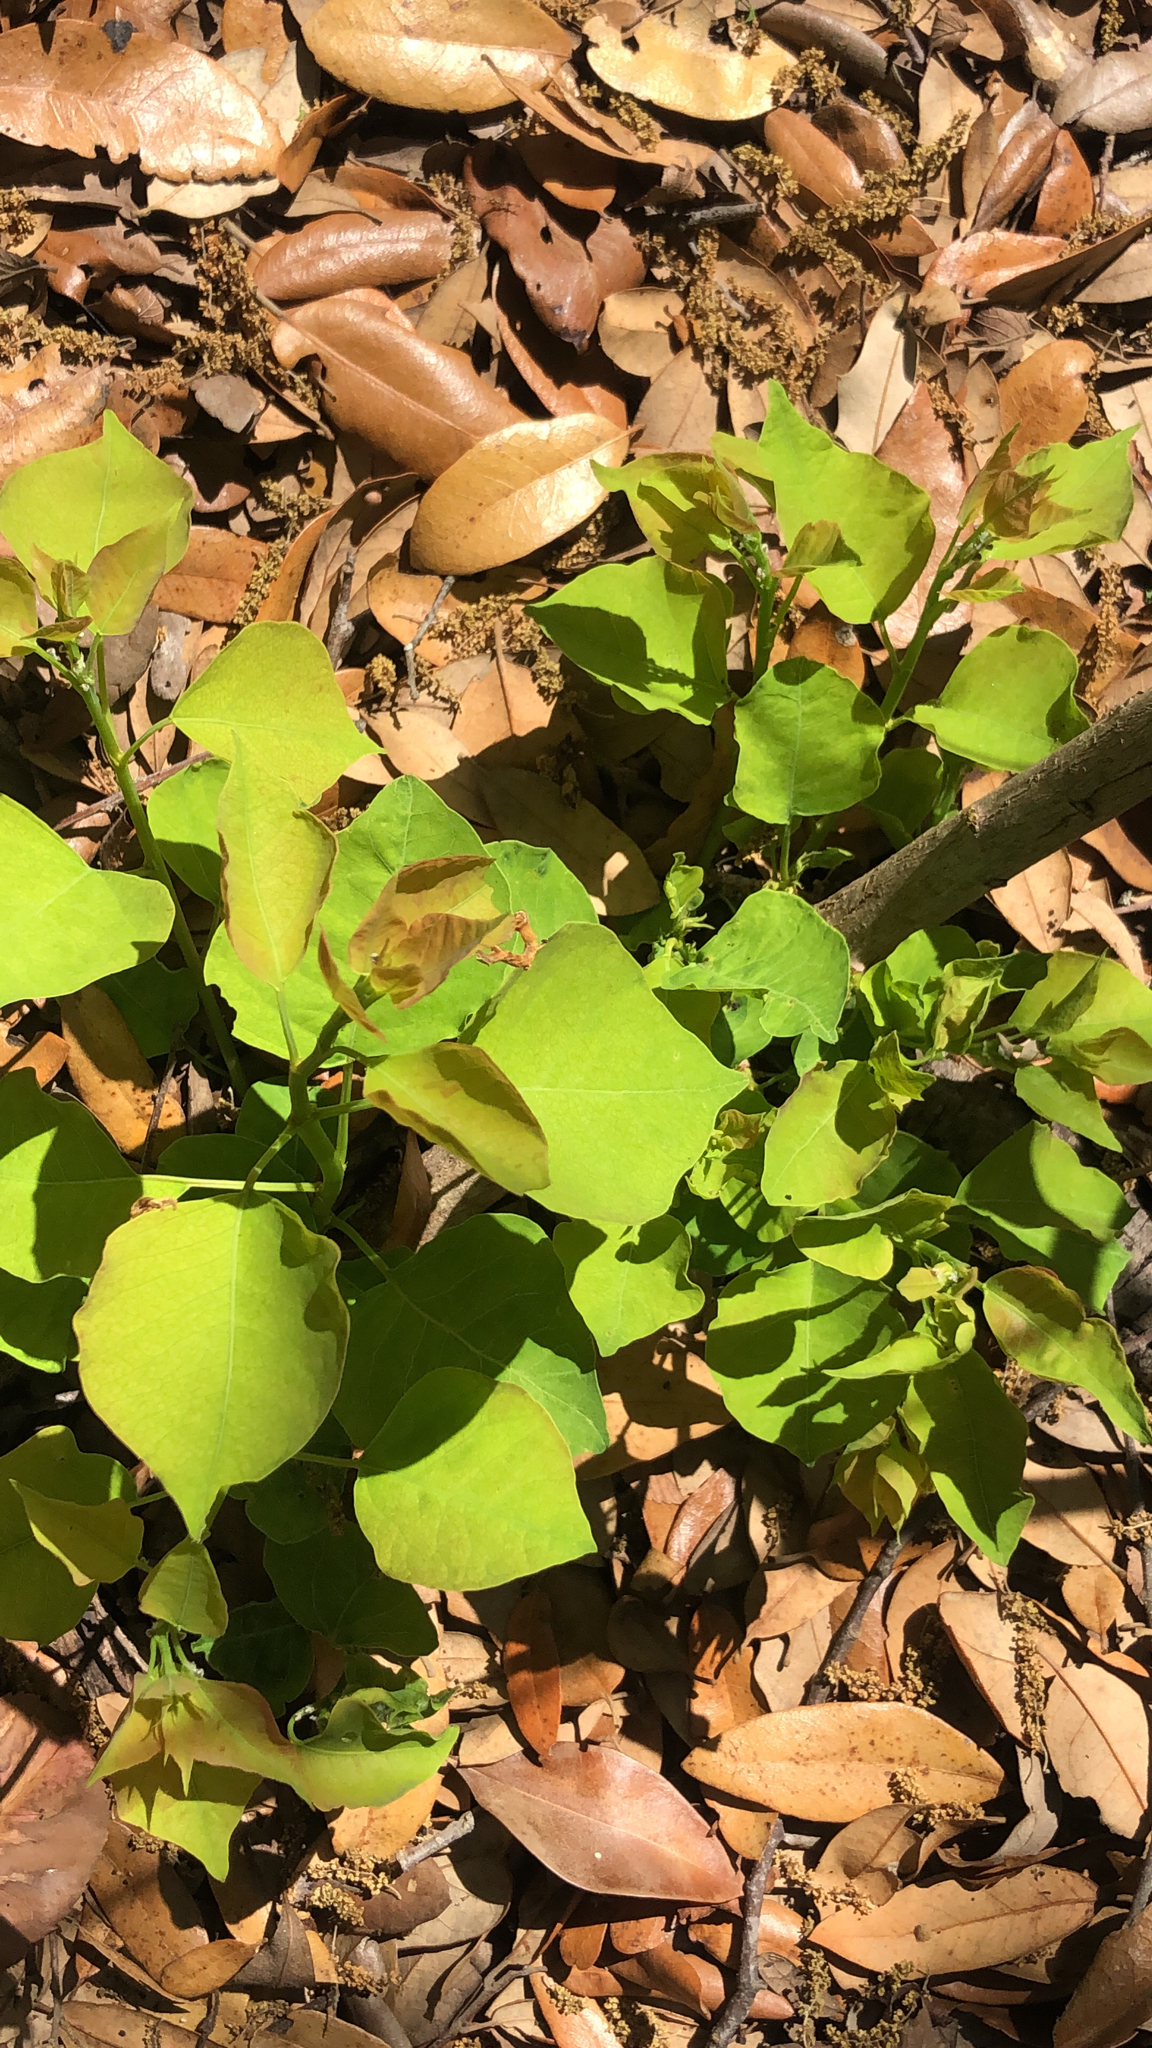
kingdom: Plantae
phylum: Tracheophyta
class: Magnoliopsida
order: Malpighiales
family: Euphorbiaceae
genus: Triadica
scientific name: Triadica sebifera
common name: Chinese tallow
